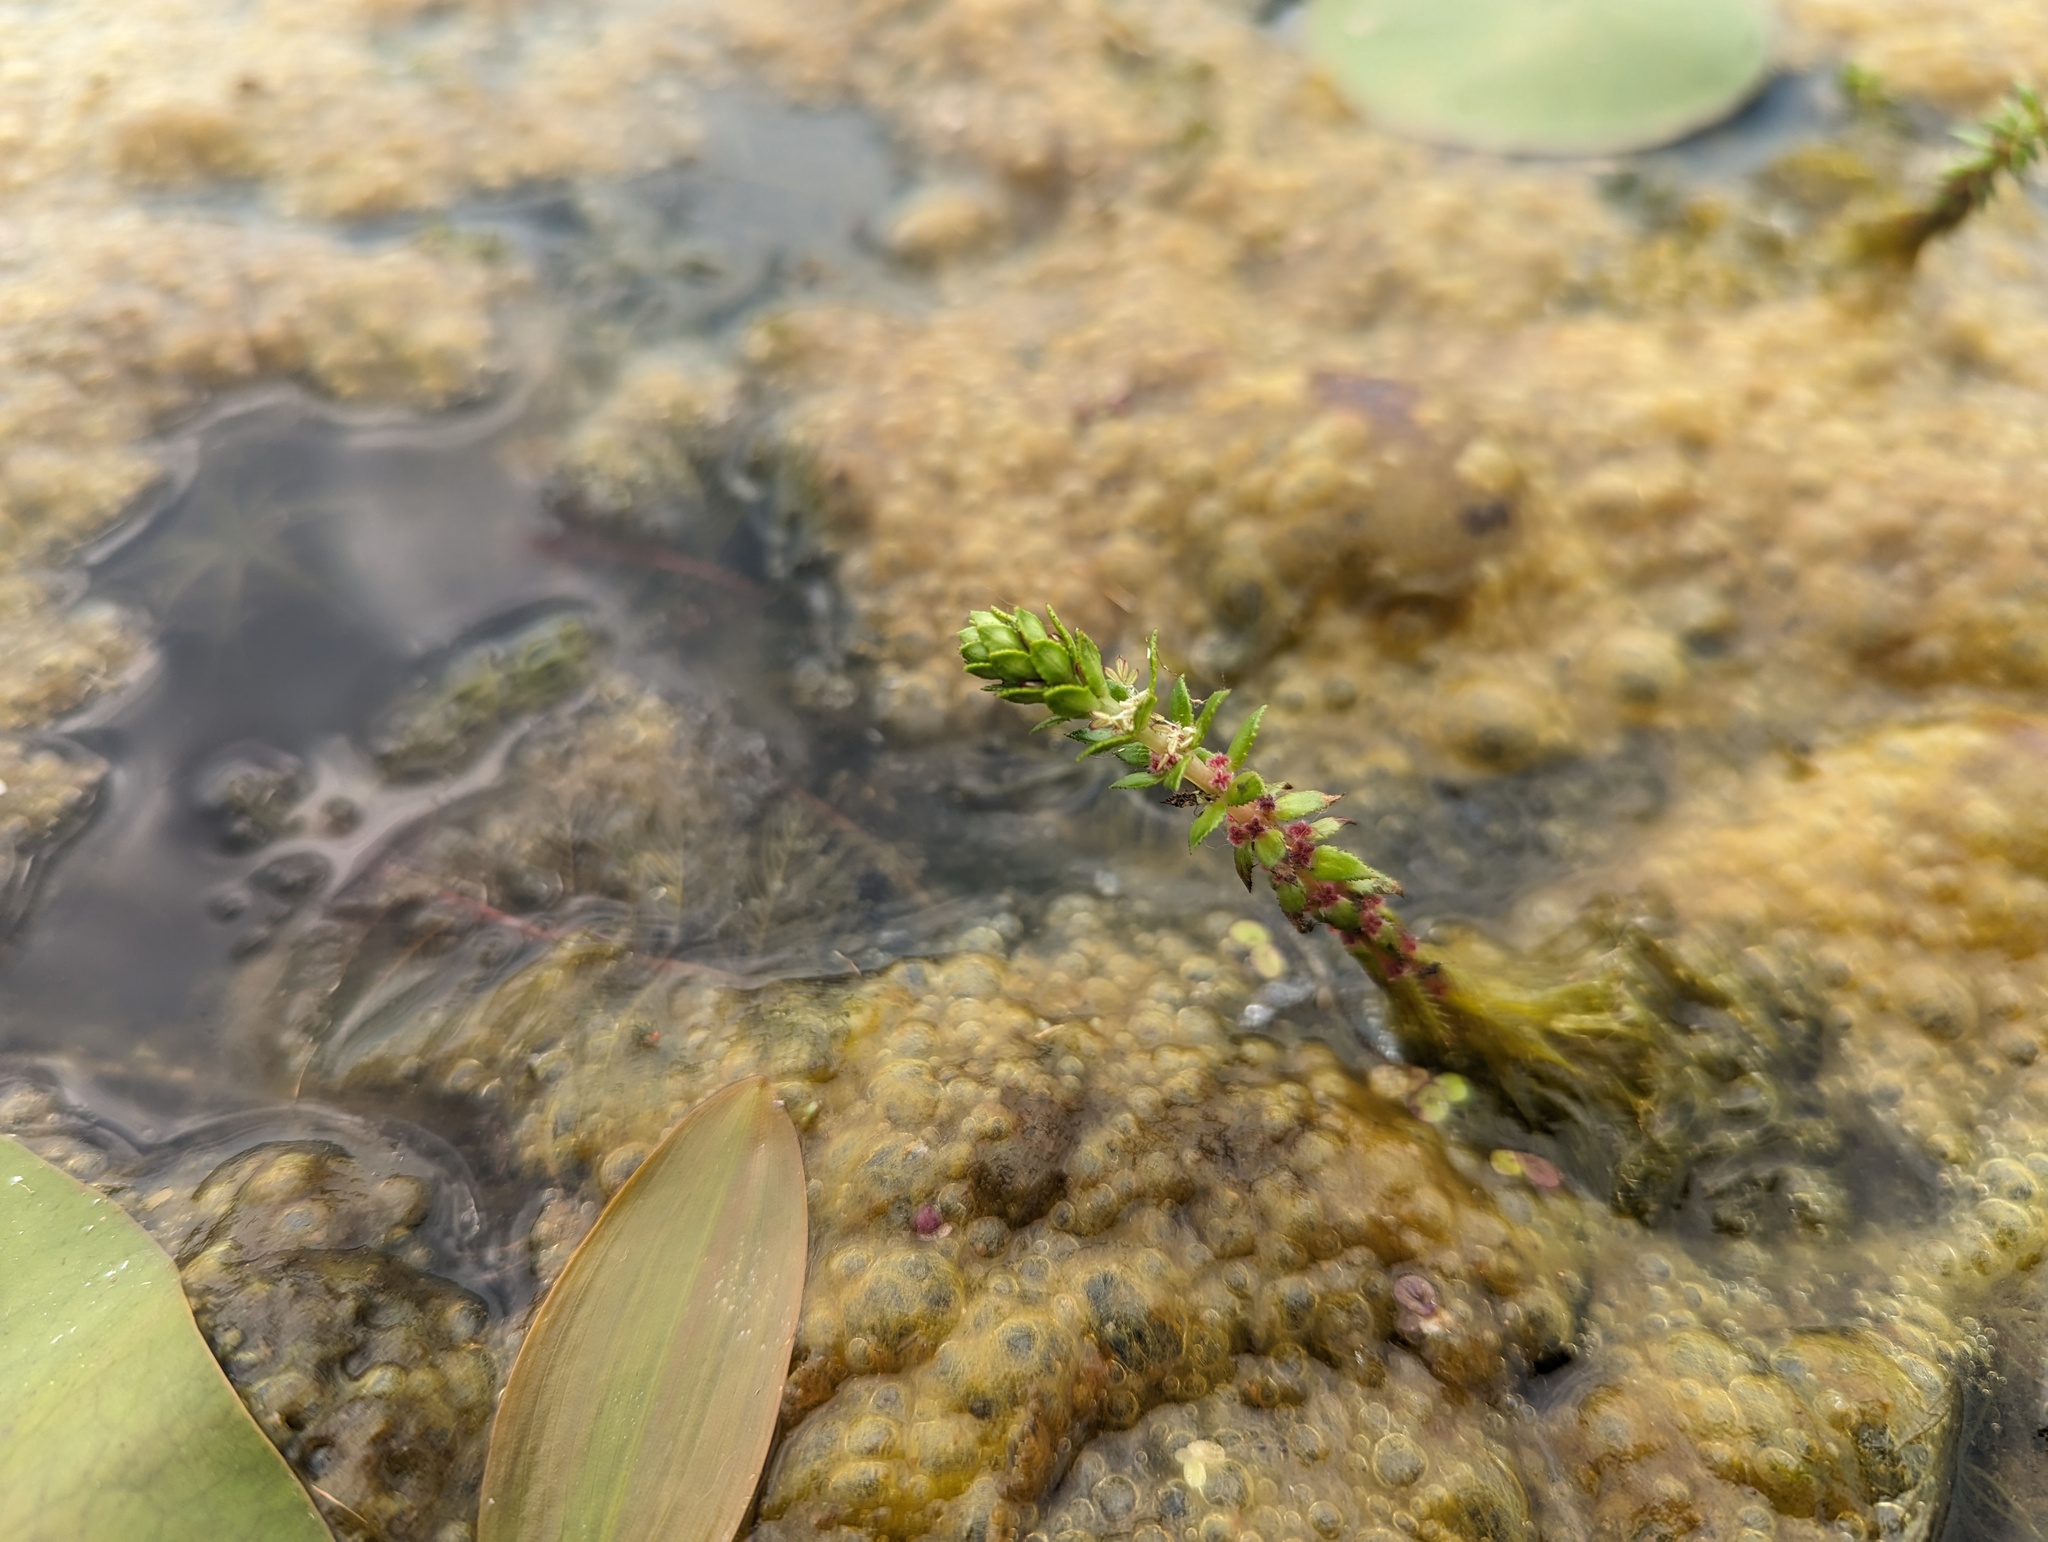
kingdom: Plantae
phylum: Tracheophyta
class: Magnoliopsida
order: Saxifragales
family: Haloragaceae
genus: Myriophyllum
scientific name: Myriophyllum heterophyllum
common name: Variable watermilfoil
